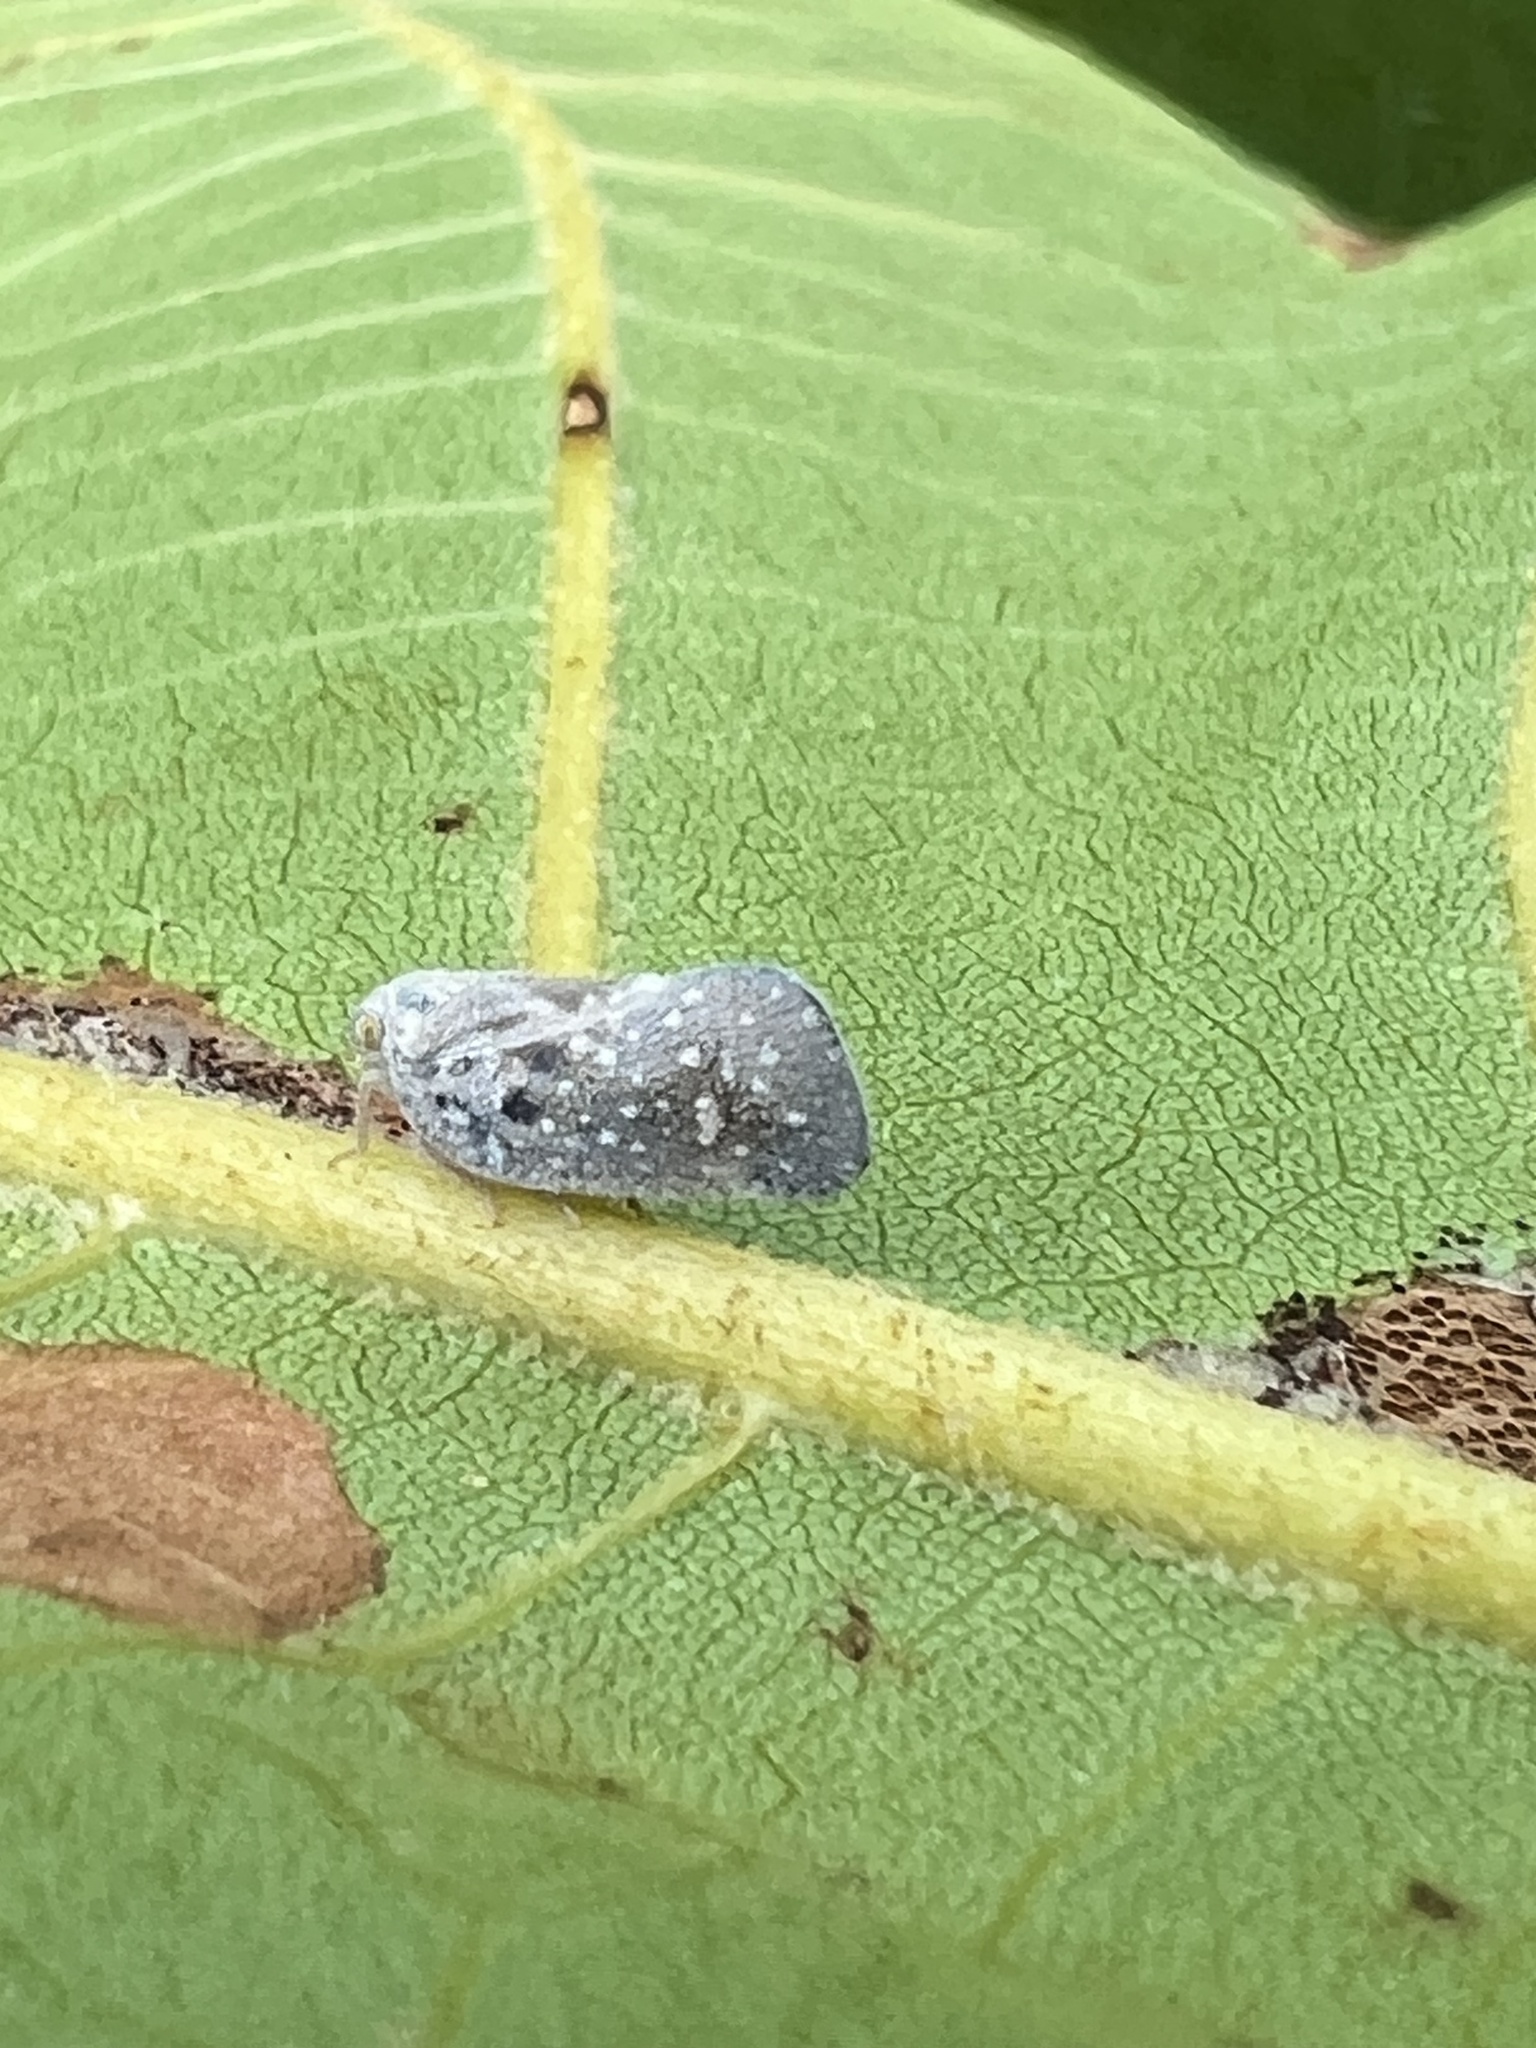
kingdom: Animalia
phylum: Arthropoda
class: Insecta
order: Hemiptera
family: Flatidae
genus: Metcalfa
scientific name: Metcalfa pruinosa
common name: Citrus flatid planthopper
